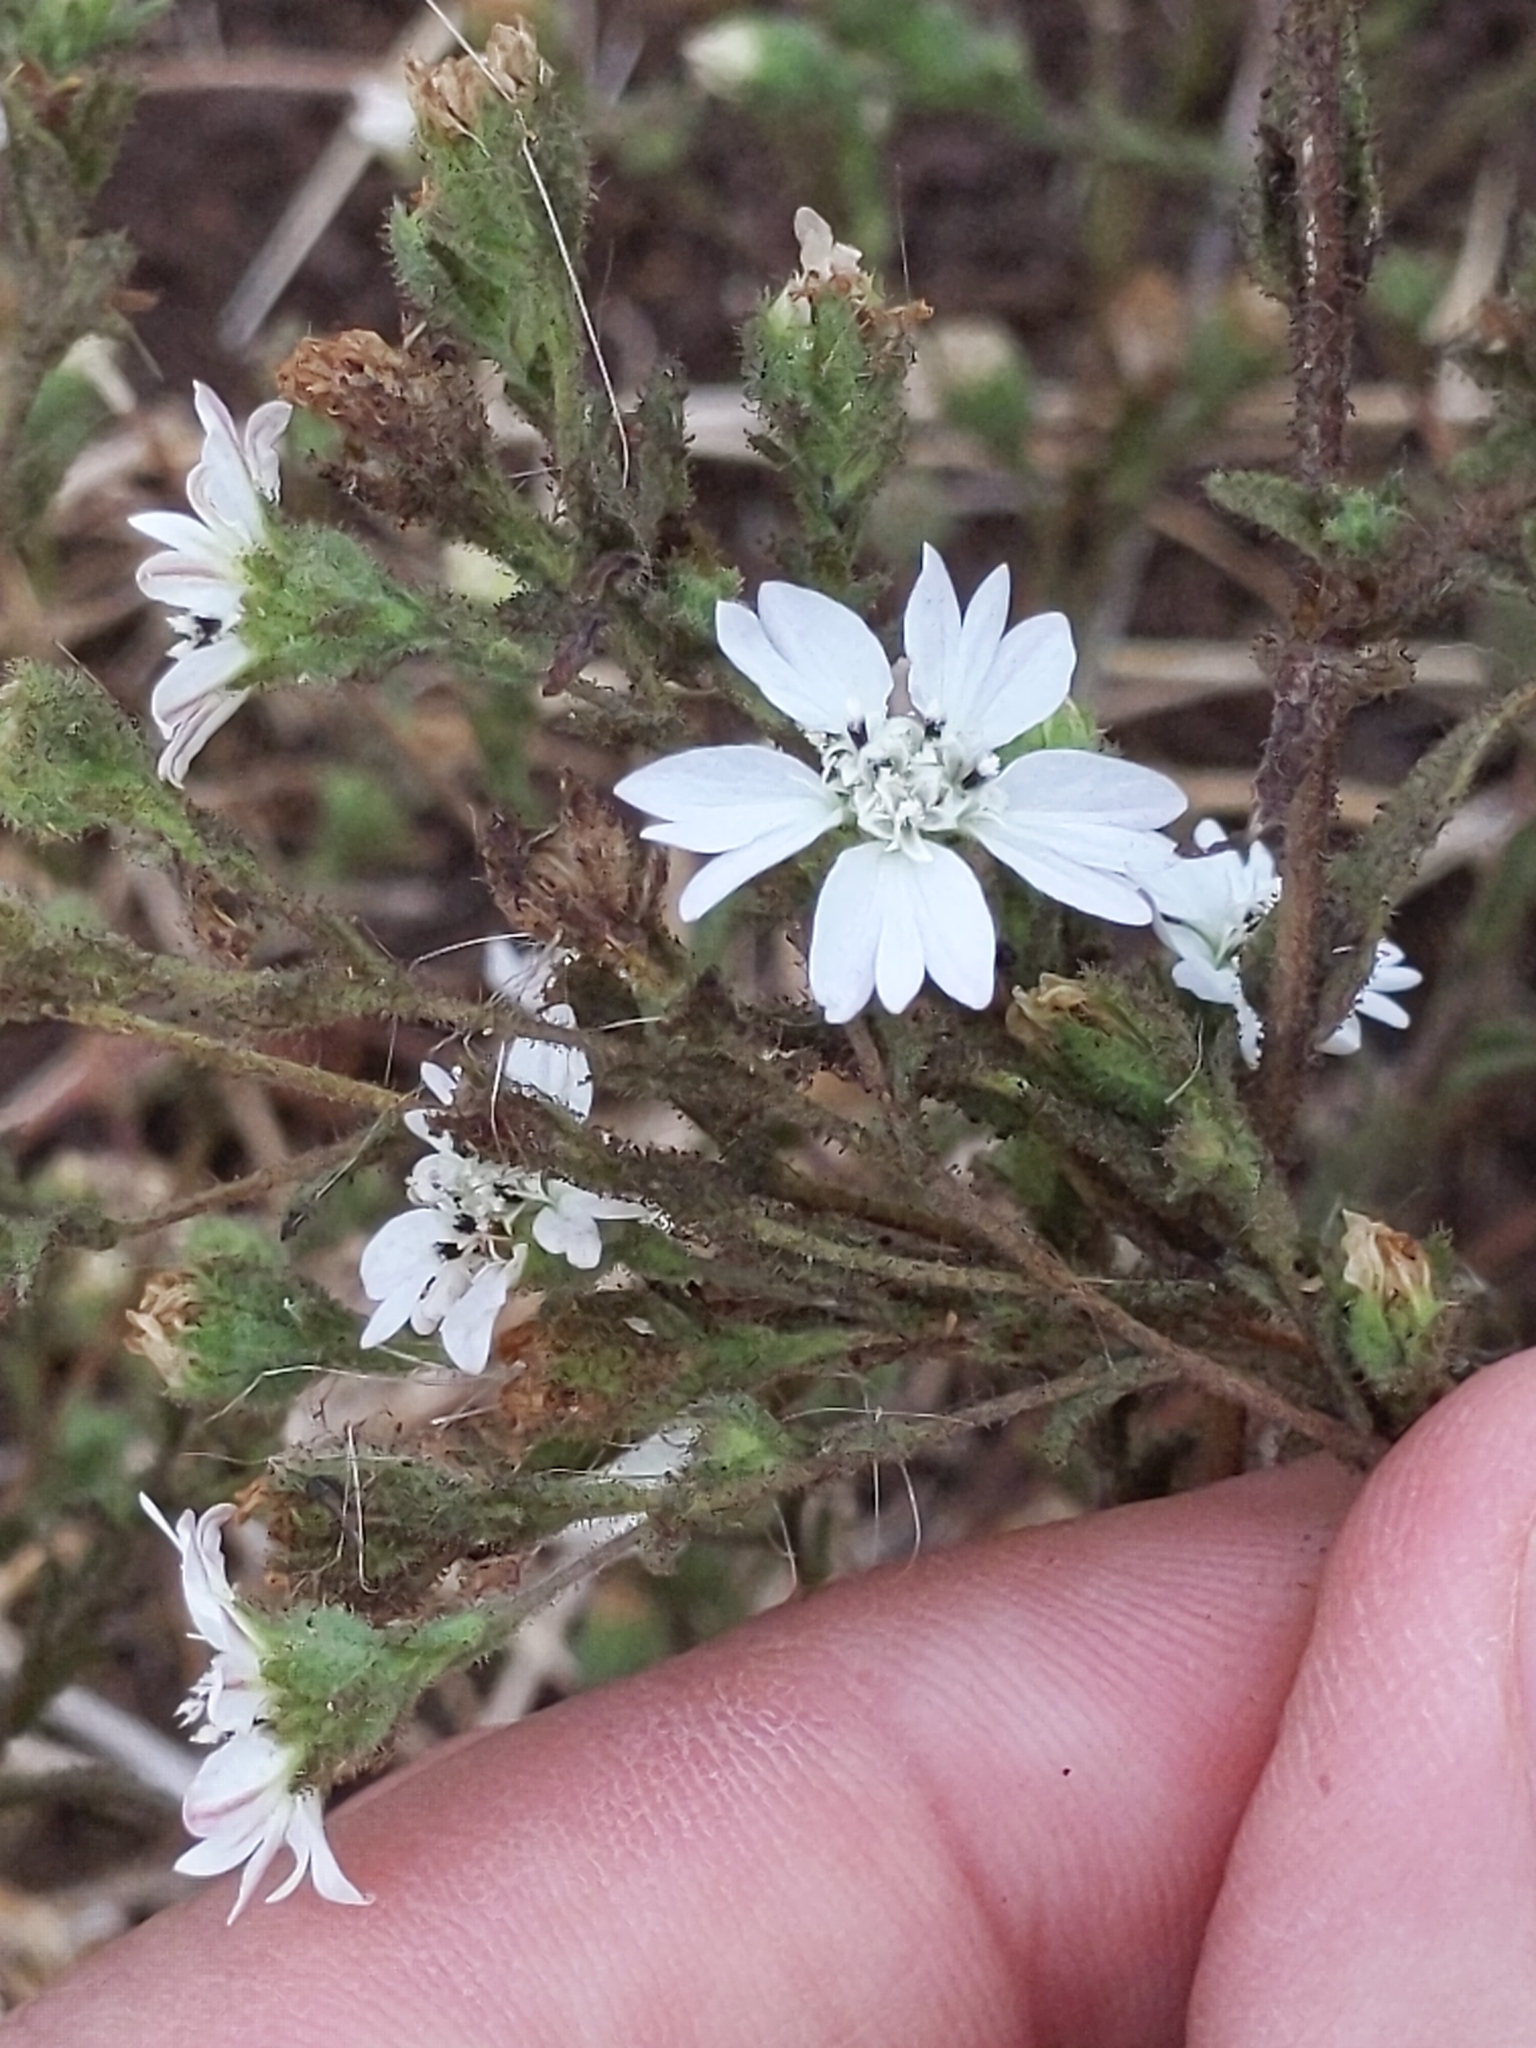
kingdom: Plantae
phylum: Tracheophyta
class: Magnoliopsida
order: Asterales
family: Asteraceae
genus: Hemizonia
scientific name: Hemizonia congesta
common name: Hayfield tarweed
